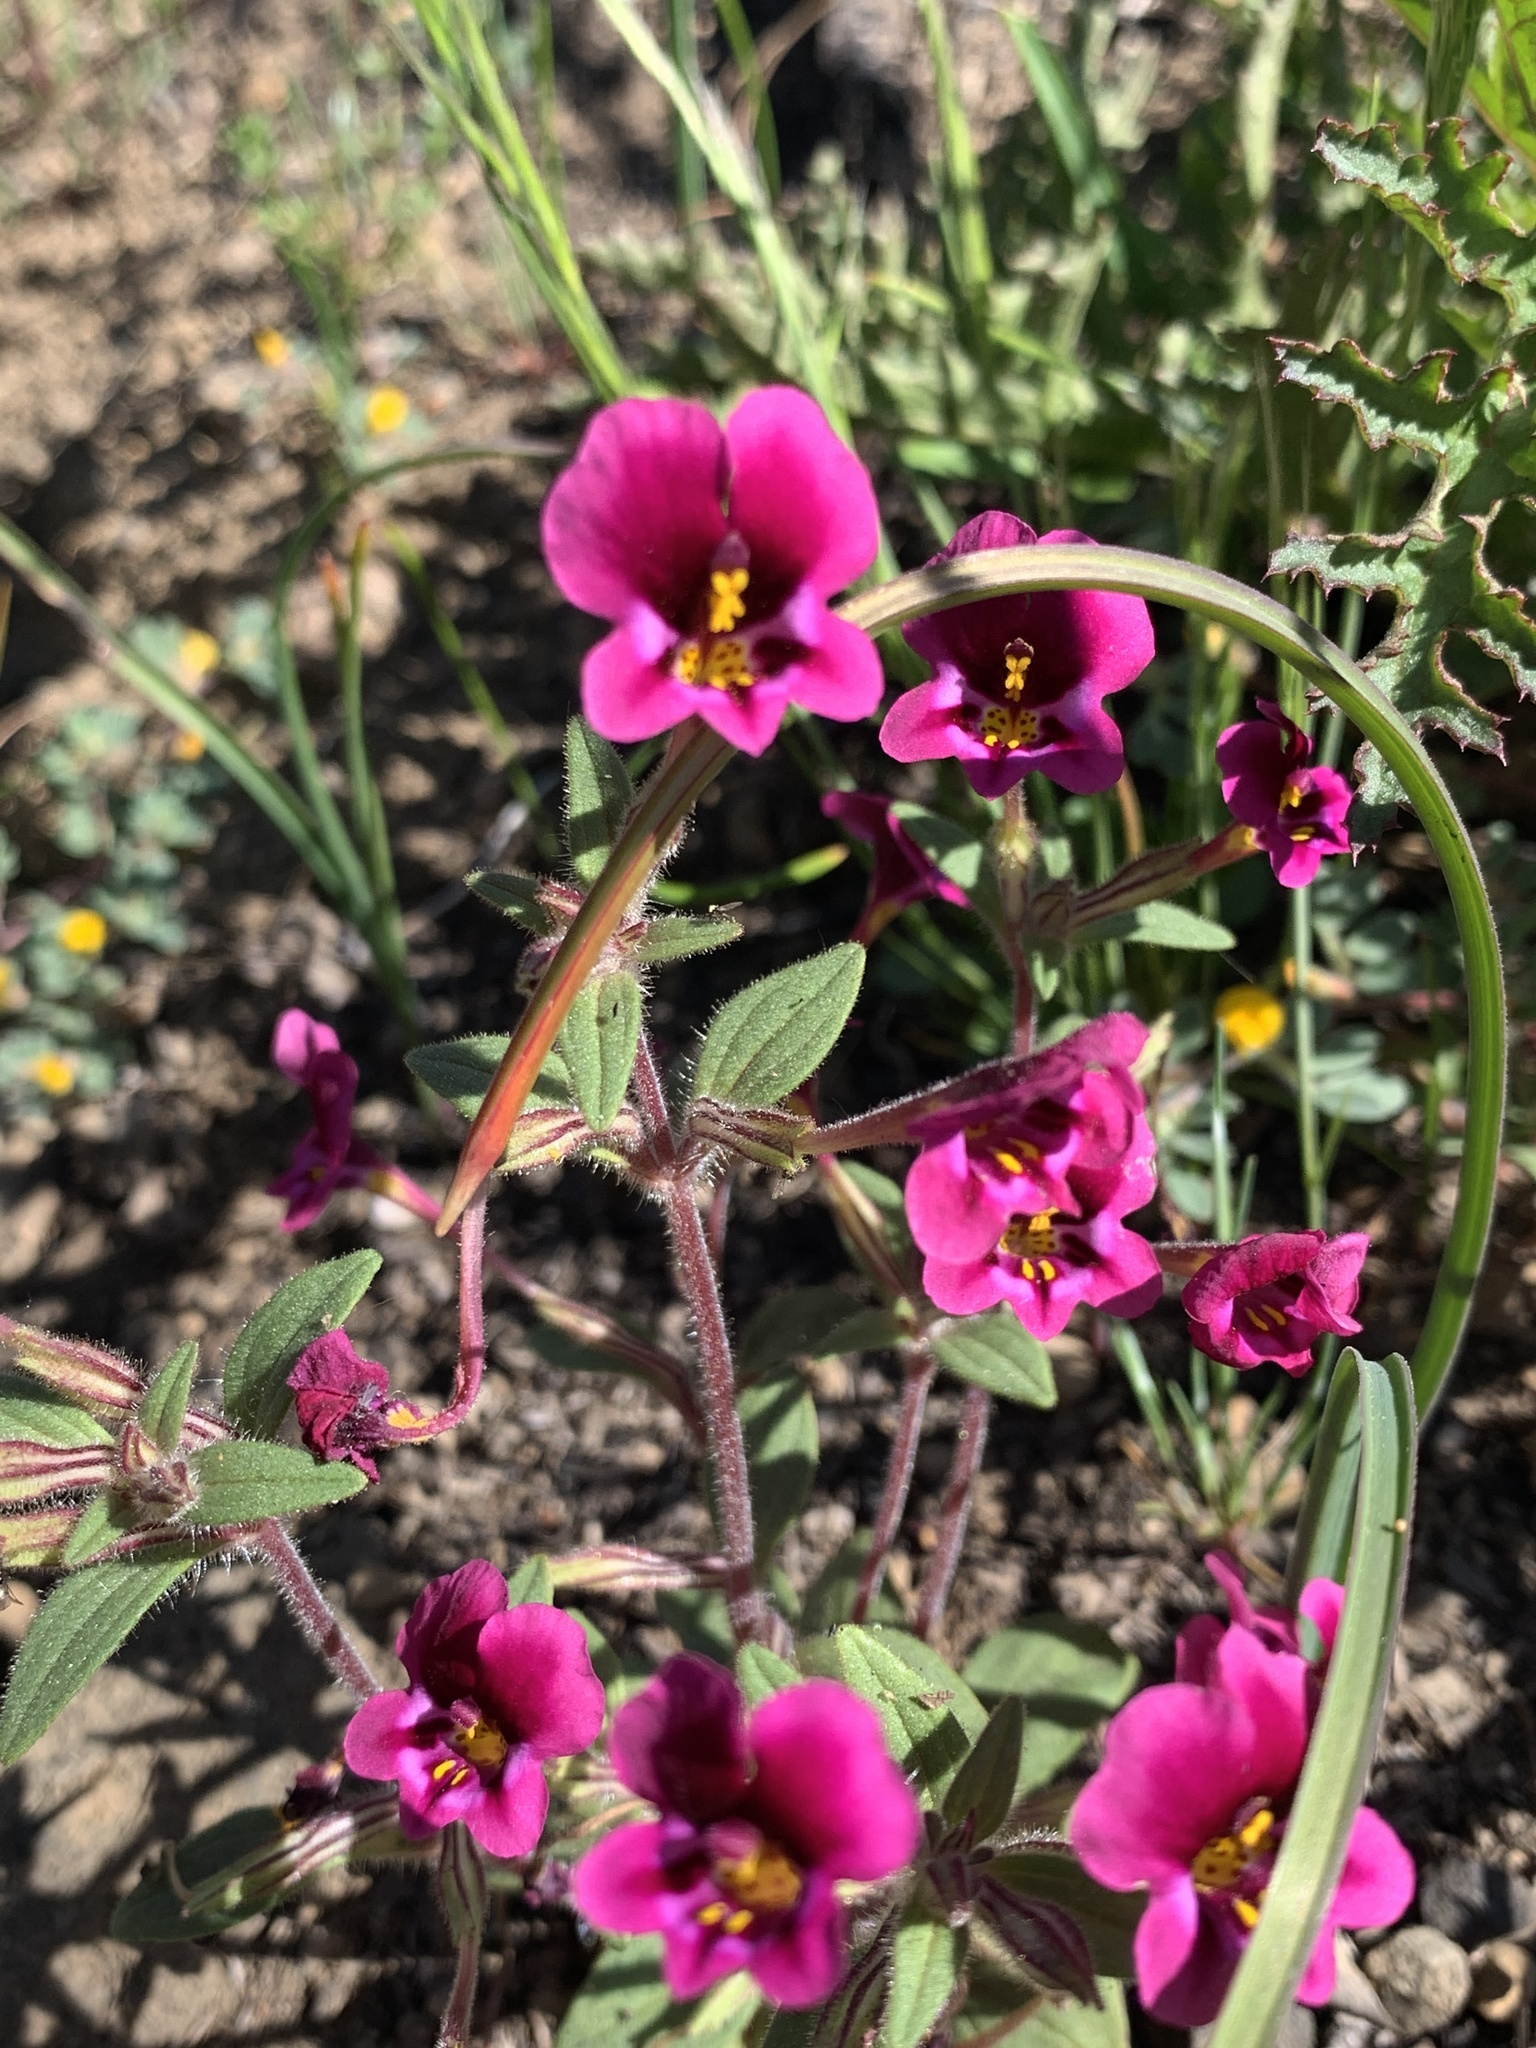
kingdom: Plantae
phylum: Tracheophyta
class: Magnoliopsida
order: Lamiales
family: Phrymaceae
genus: Diplacus
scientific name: Diplacus kelloggii
